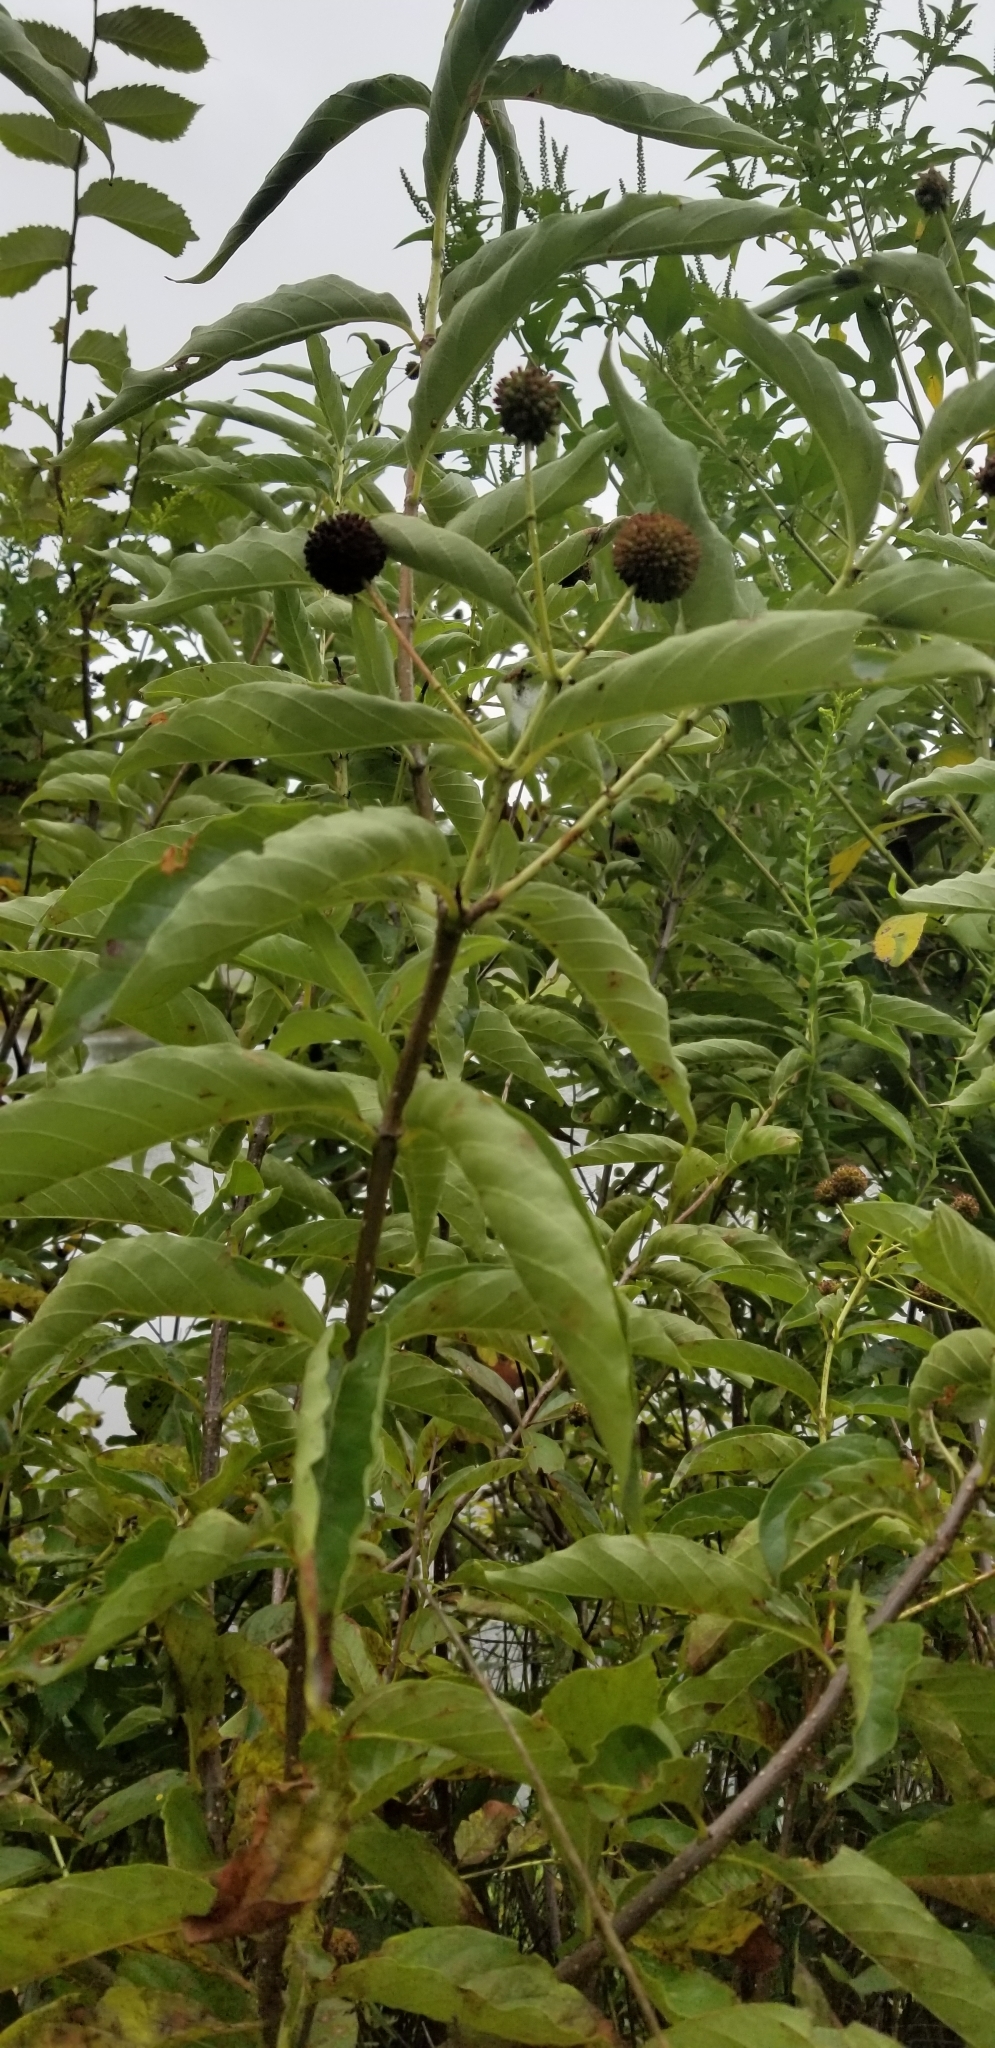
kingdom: Plantae
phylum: Tracheophyta
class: Magnoliopsida
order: Gentianales
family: Rubiaceae
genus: Cephalanthus
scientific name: Cephalanthus occidentalis
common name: Button-willow
